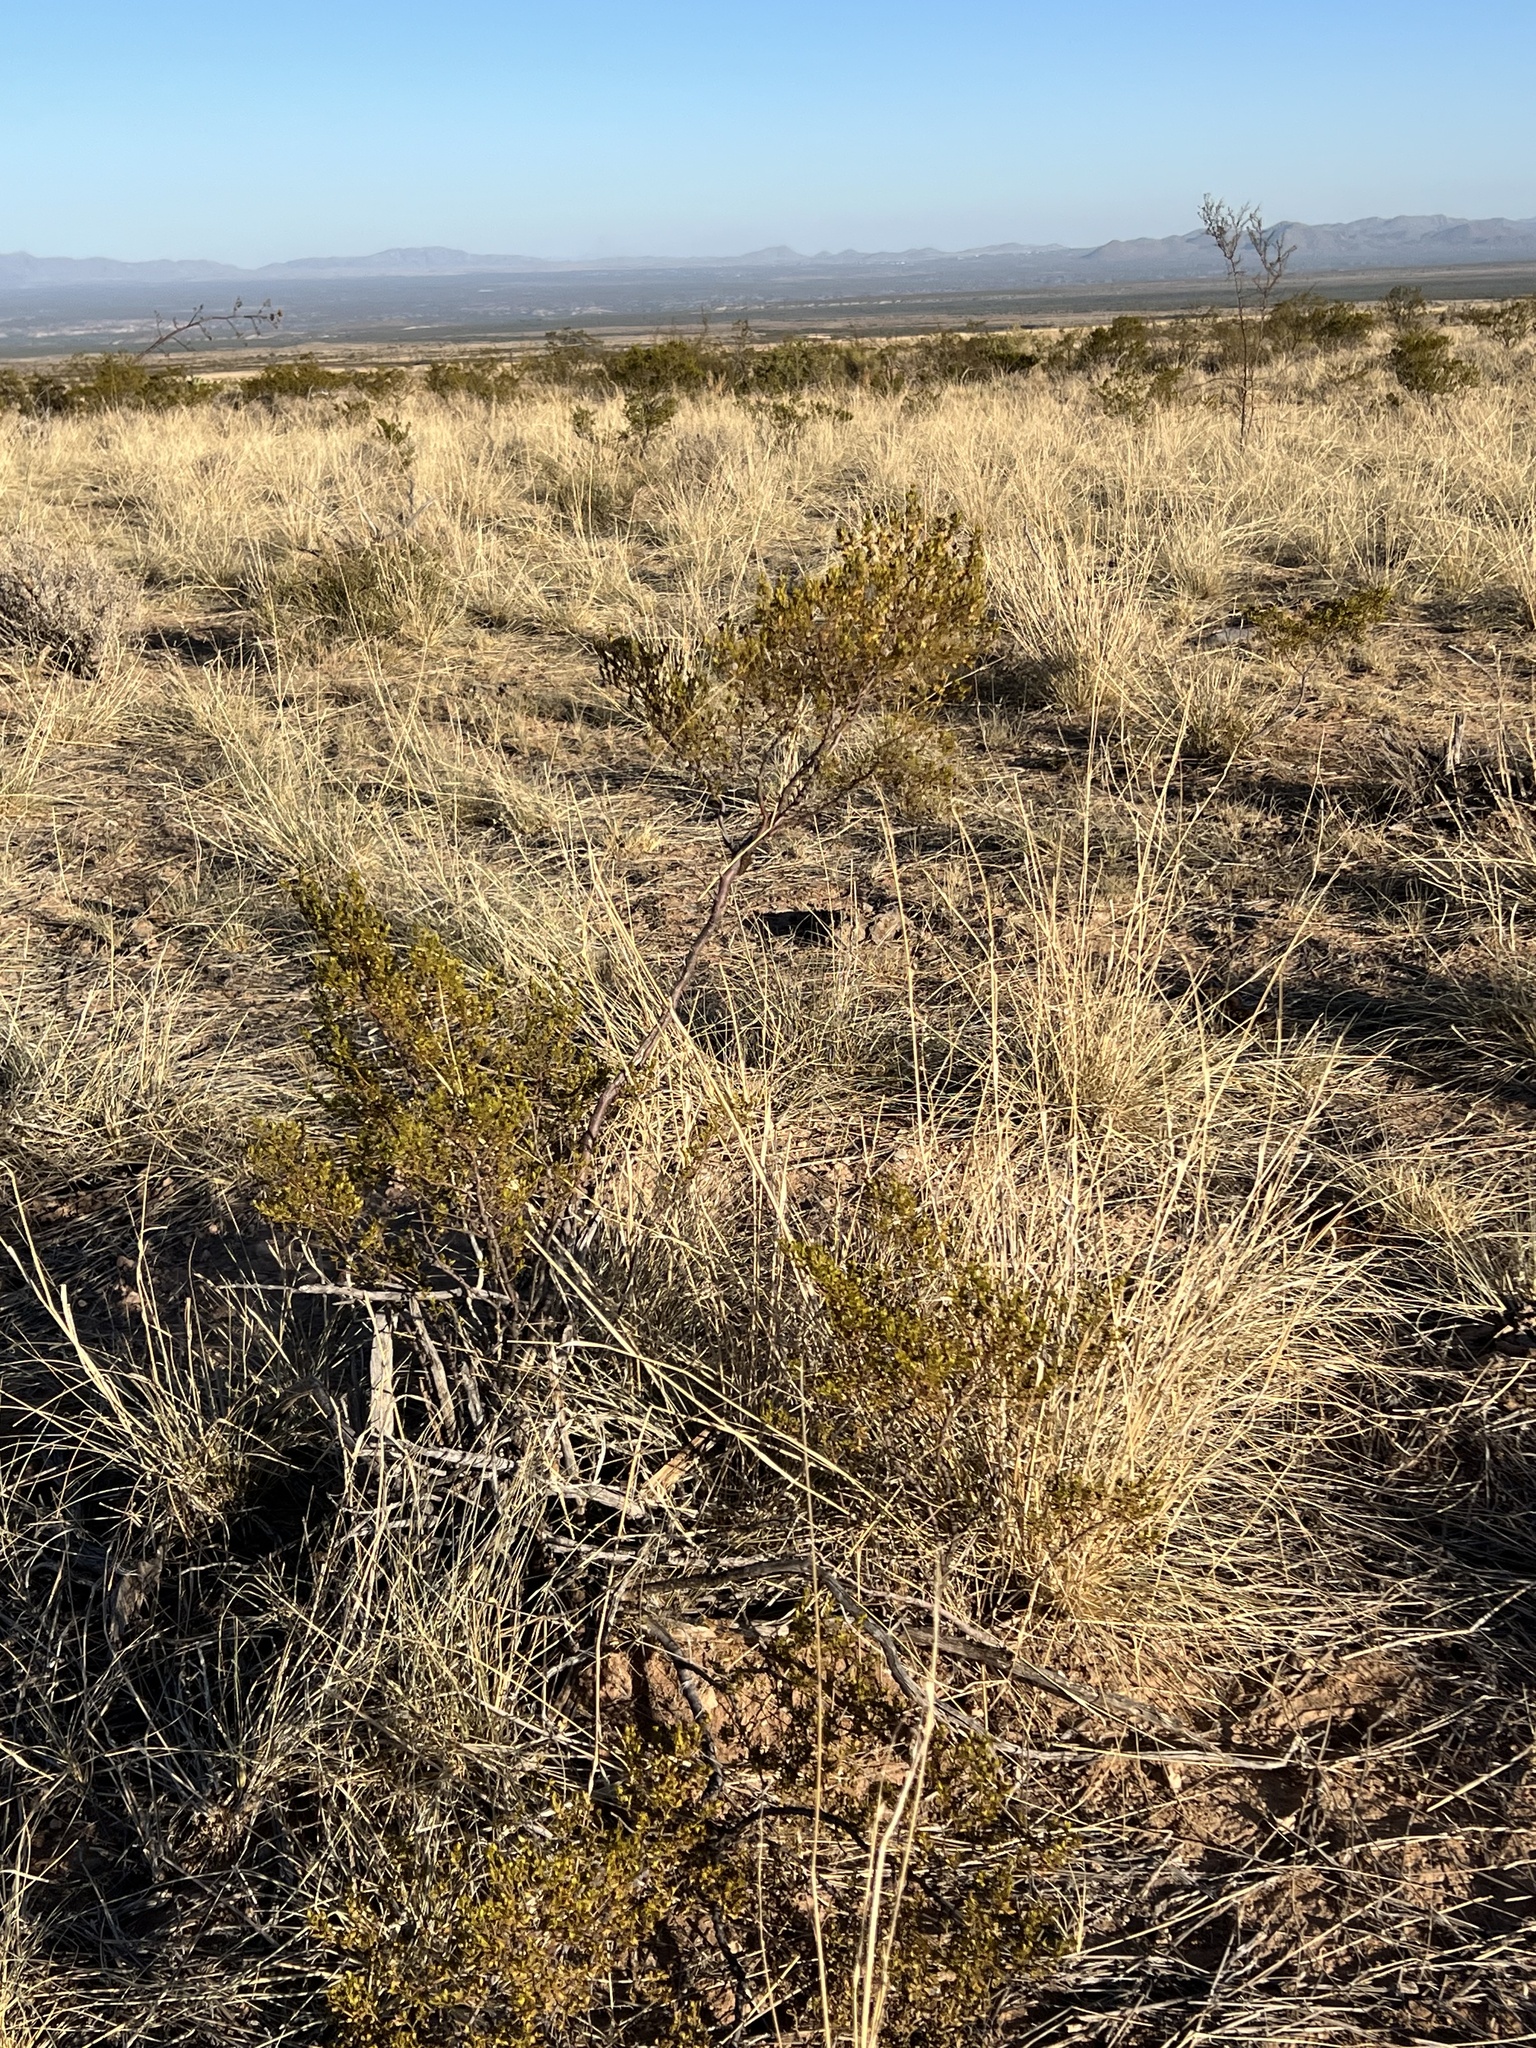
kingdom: Plantae
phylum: Tracheophyta
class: Magnoliopsida
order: Zygophyllales
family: Zygophyllaceae
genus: Larrea
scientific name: Larrea tridentata
